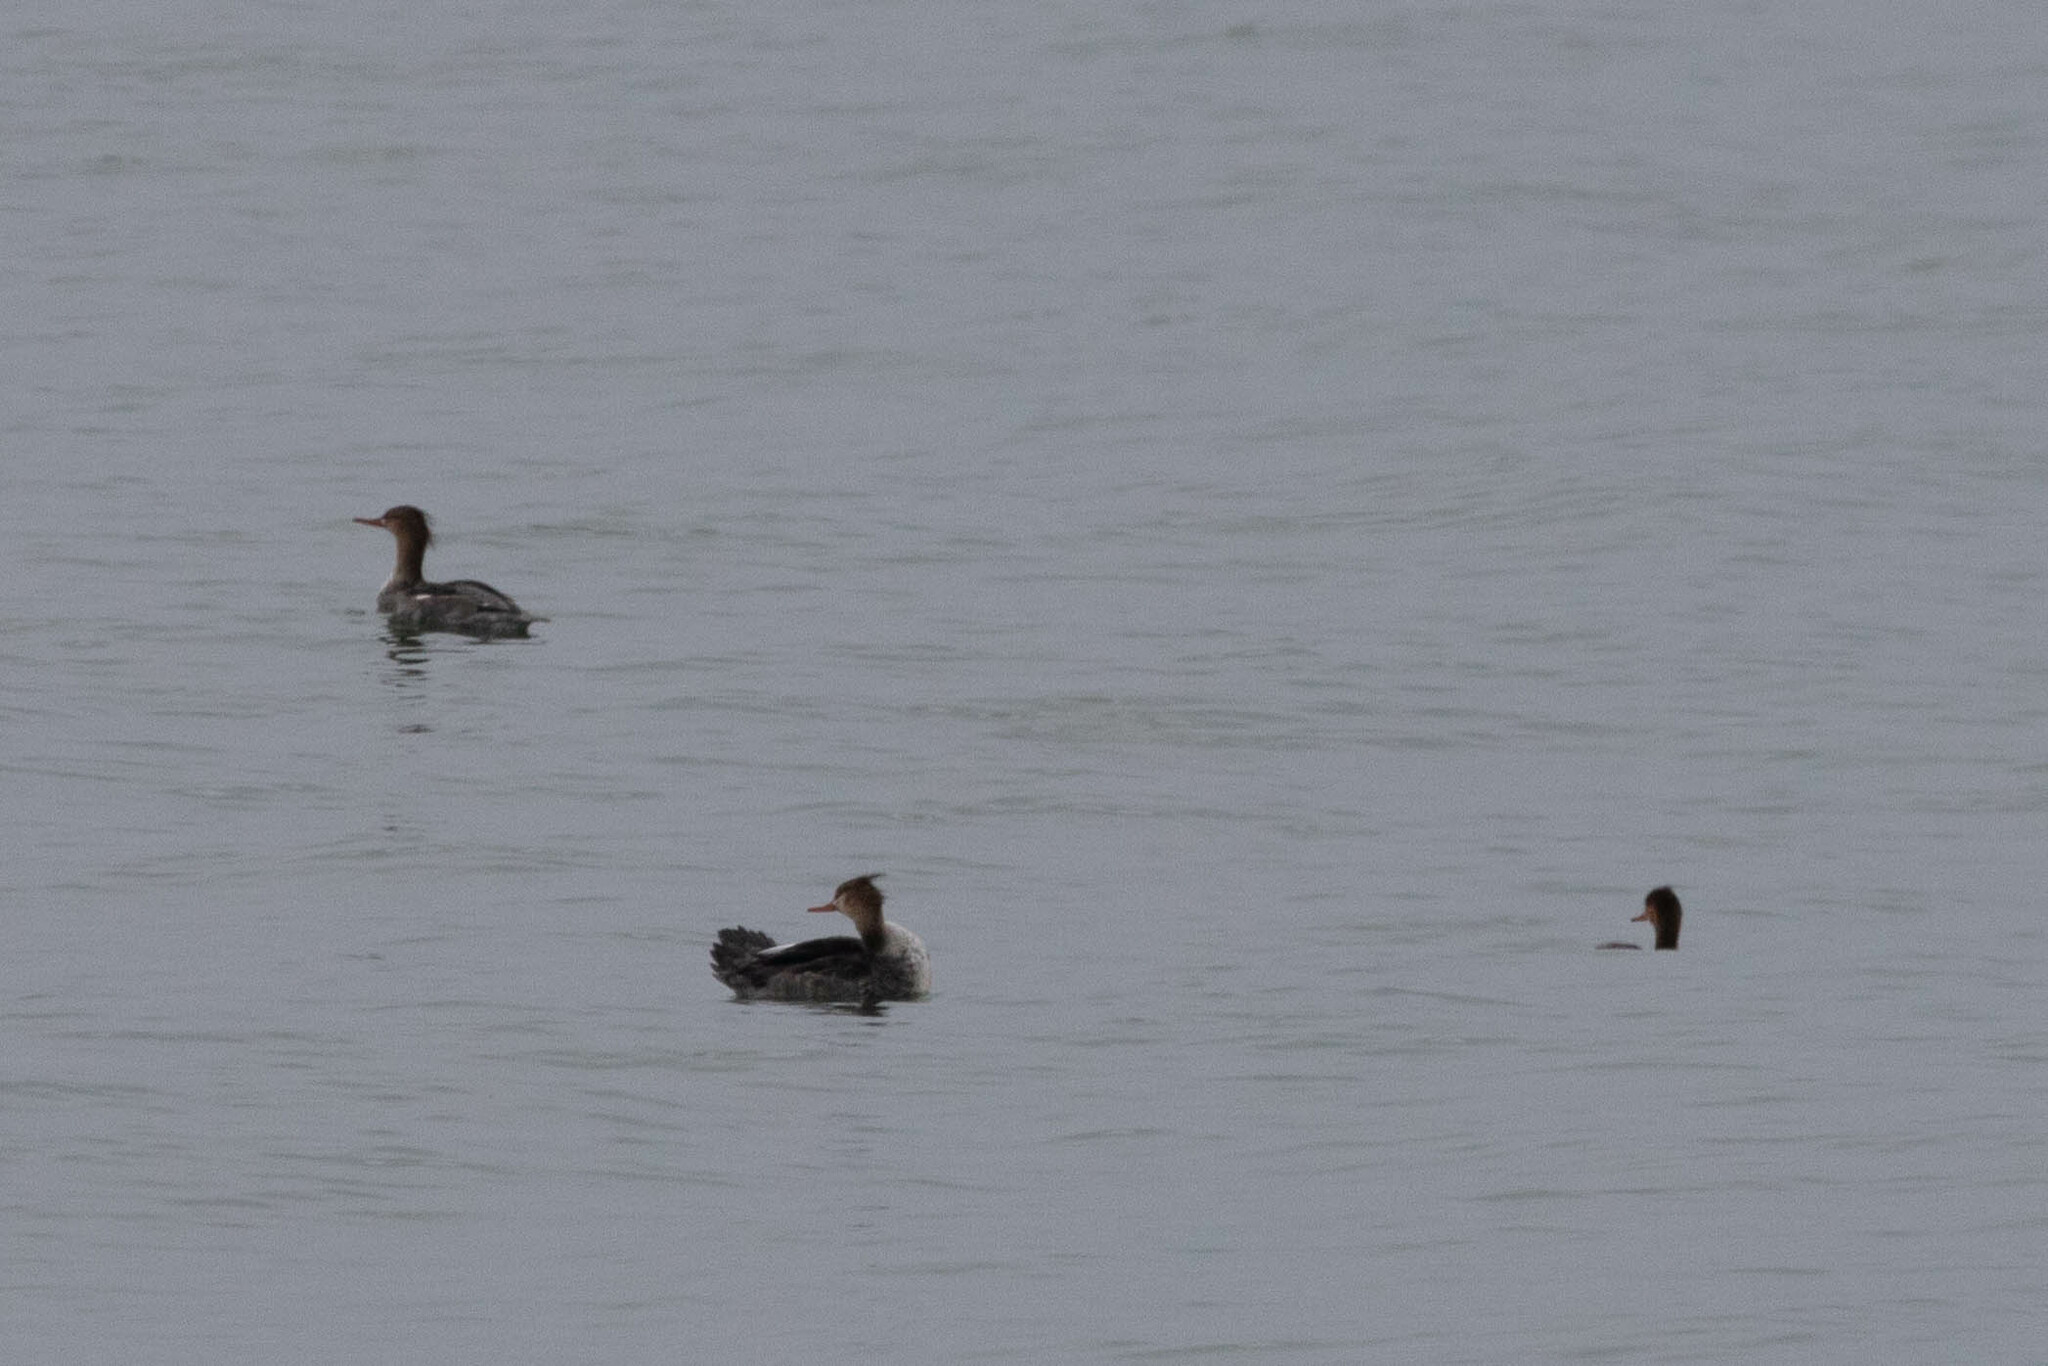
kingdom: Animalia
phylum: Chordata
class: Aves
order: Anseriformes
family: Anatidae
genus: Mergus
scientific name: Mergus serrator
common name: Red-breasted merganser
